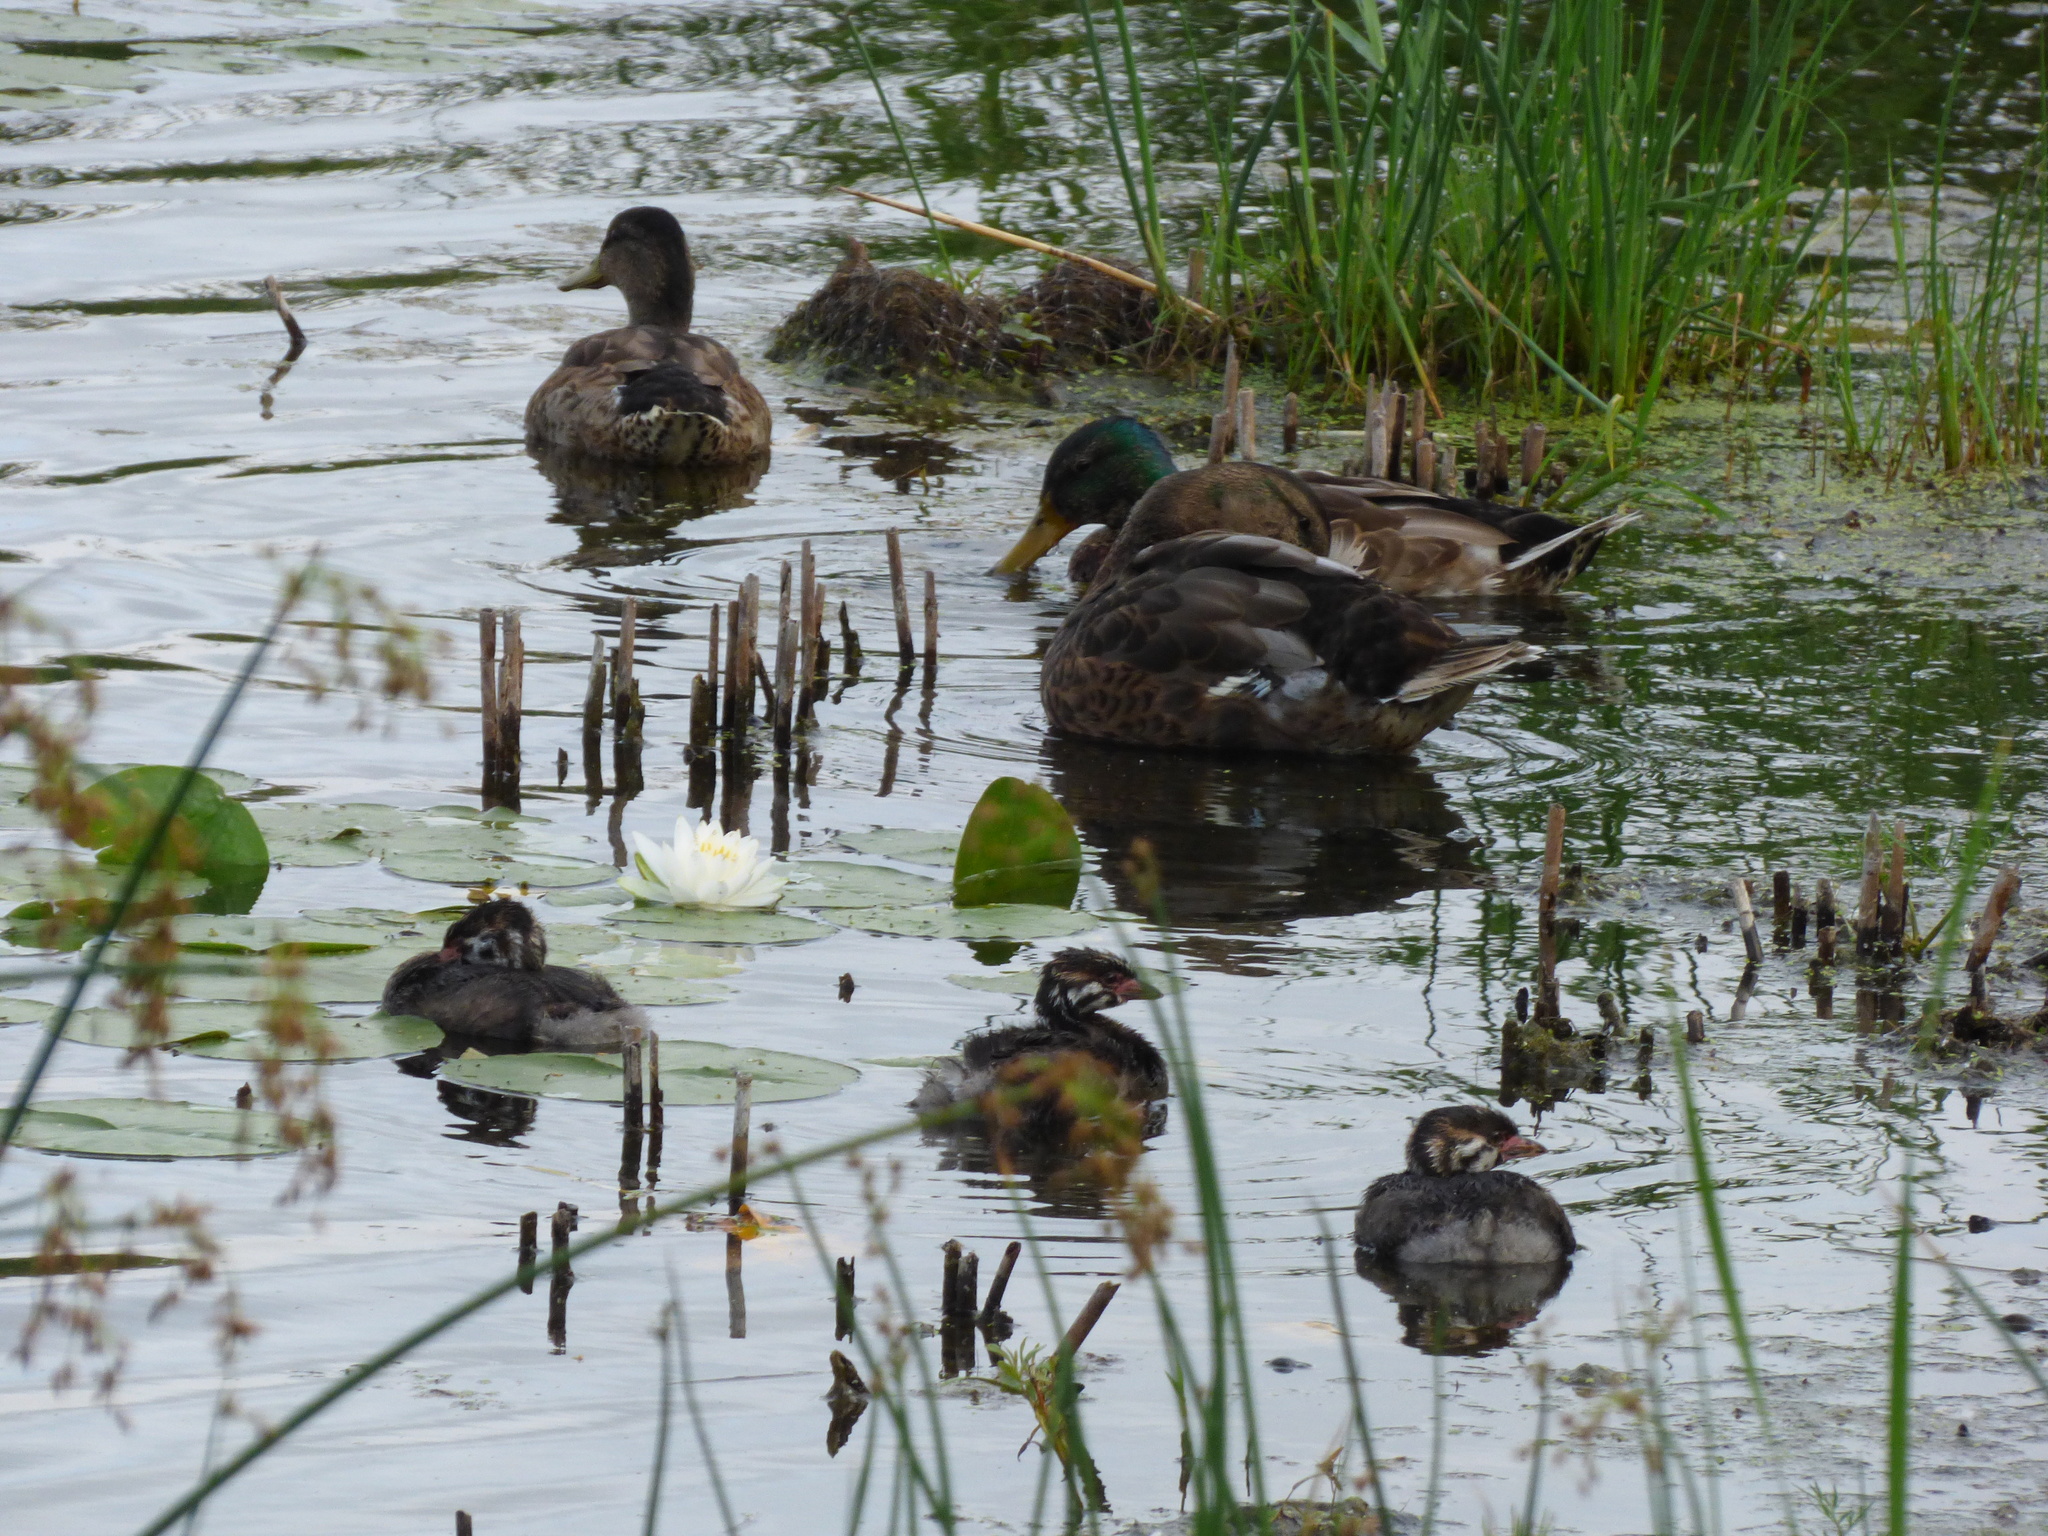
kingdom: Animalia
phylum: Chordata
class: Aves
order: Podicipediformes
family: Podicipedidae
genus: Podilymbus
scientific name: Podilymbus podiceps
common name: Pied-billed grebe
